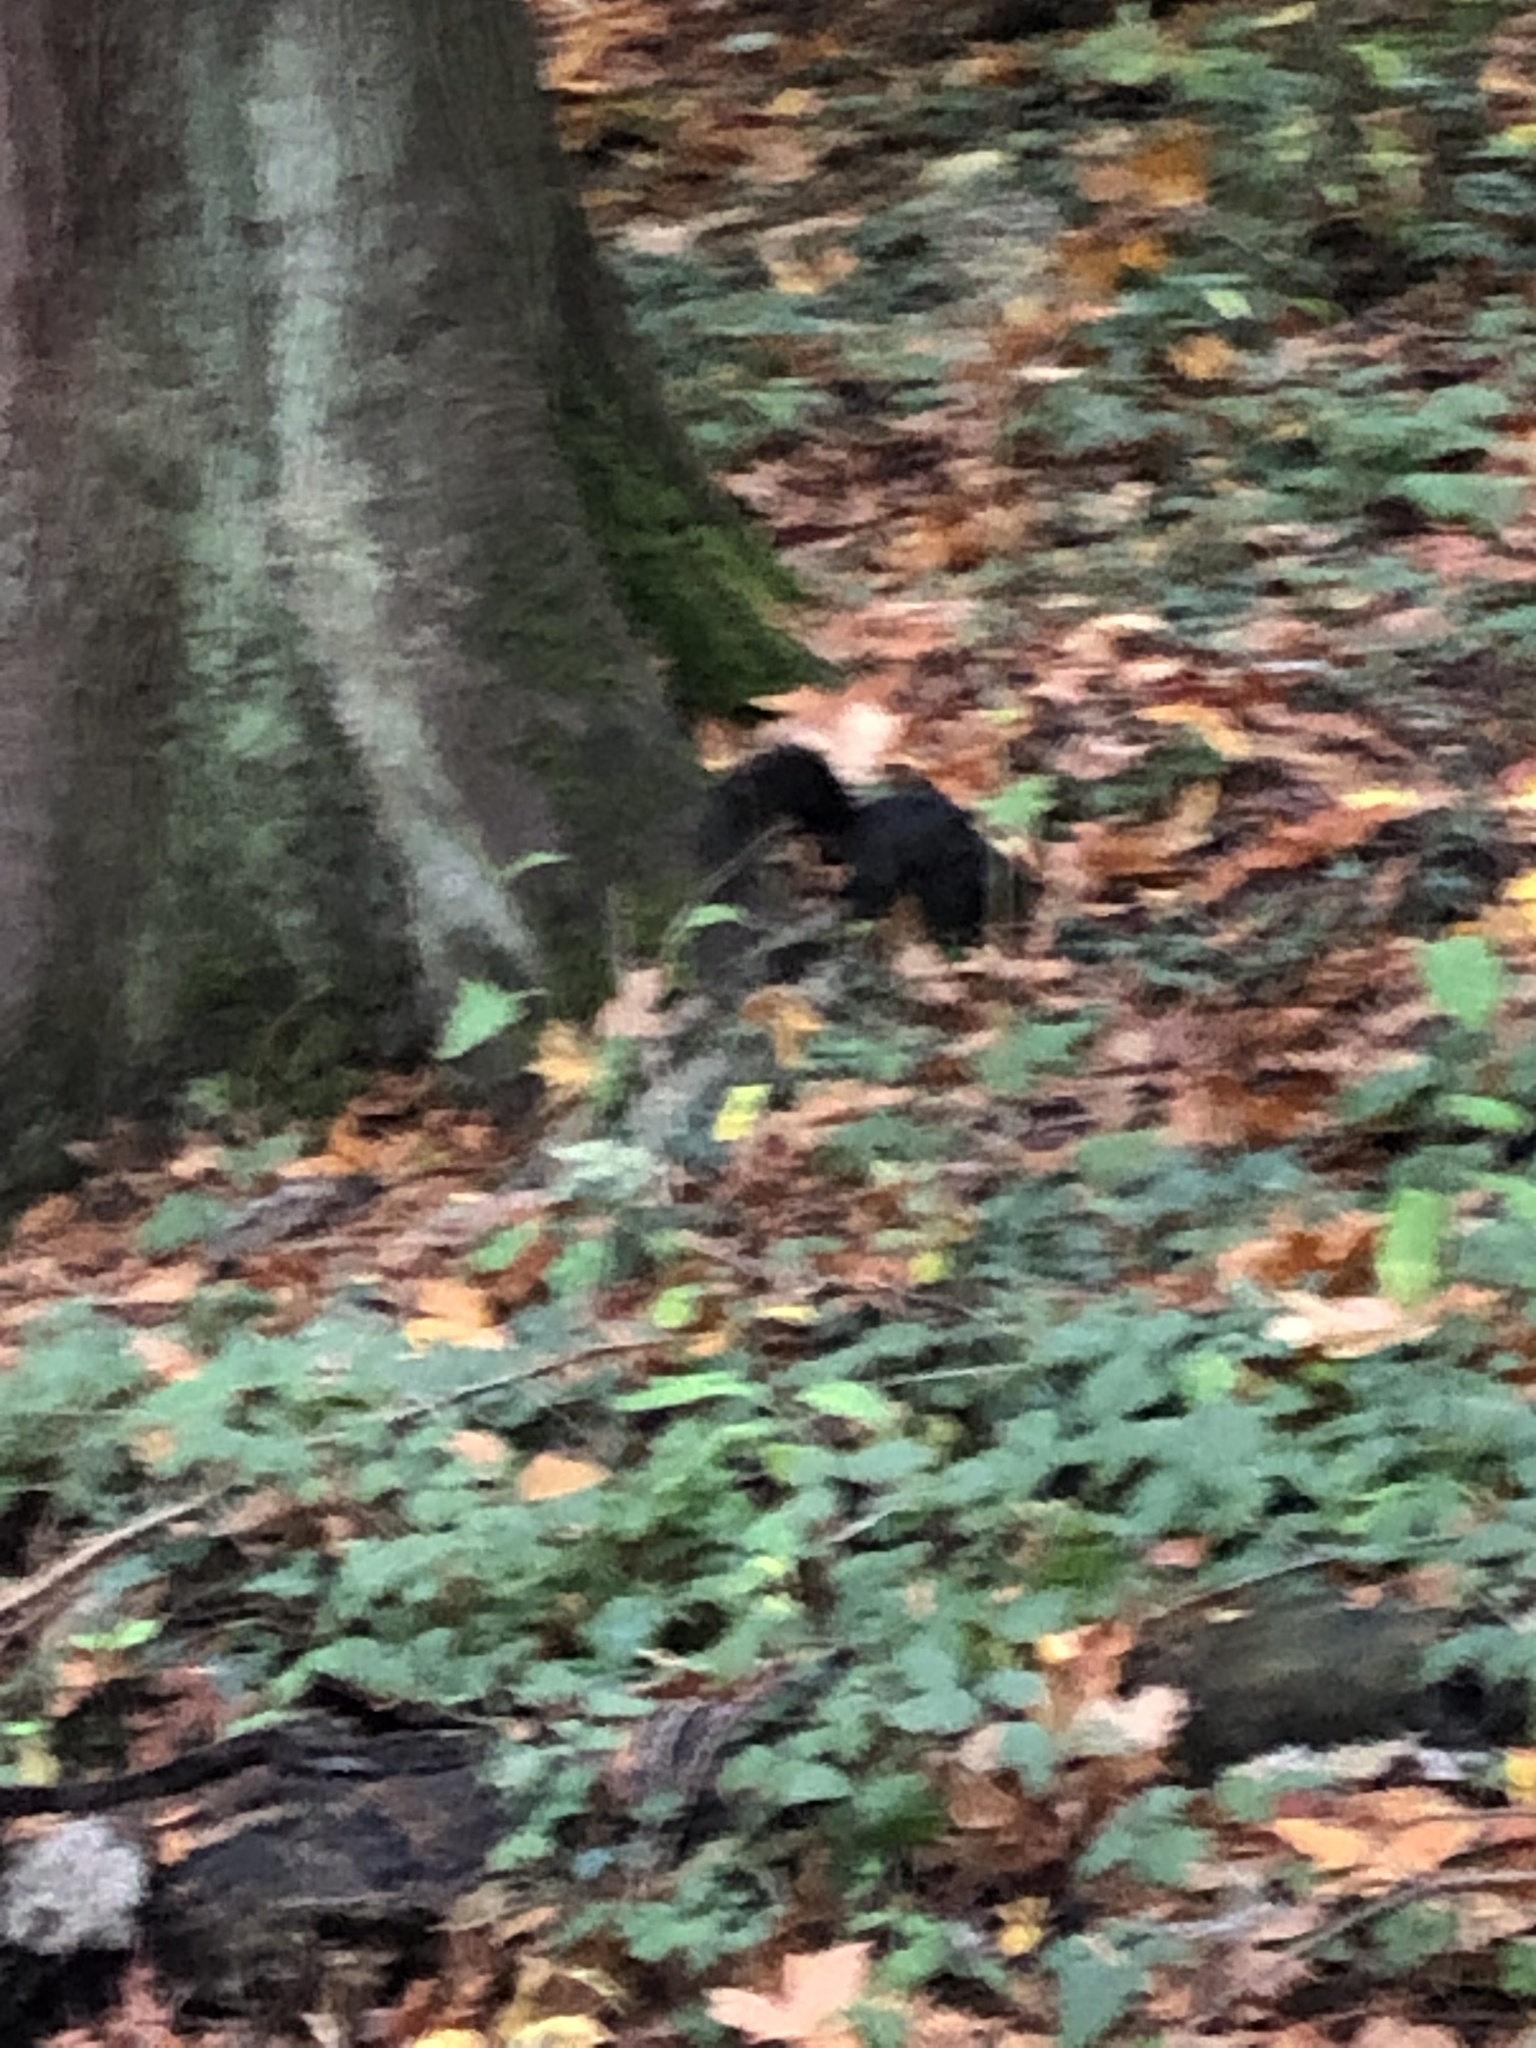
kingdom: Animalia
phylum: Chordata
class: Mammalia
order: Rodentia
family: Sciuridae
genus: Sciurus
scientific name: Sciurus carolinensis
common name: Eastern gray squirrel
